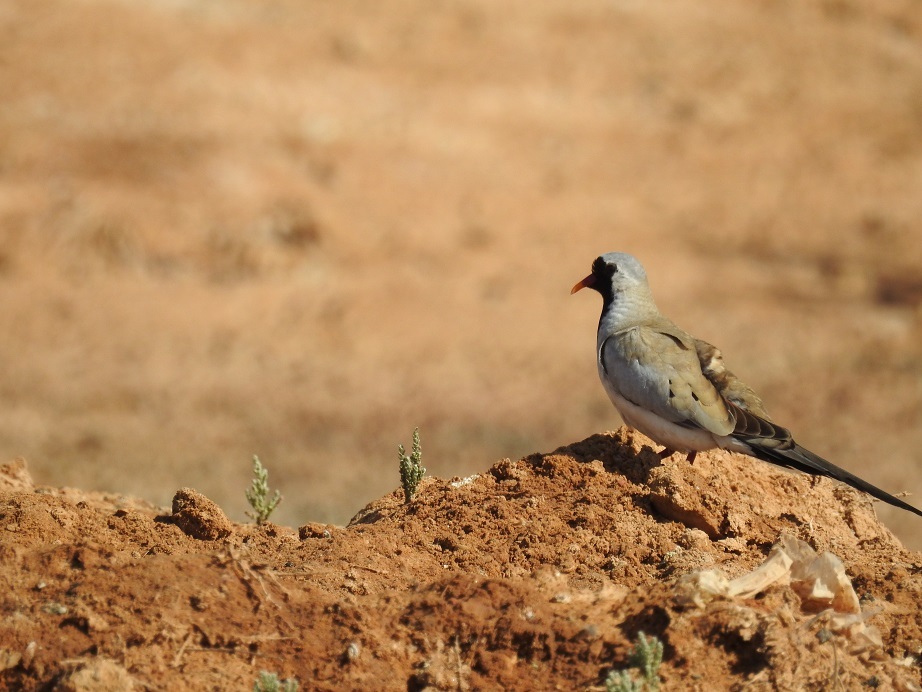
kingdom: Animalia
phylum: Chordata
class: Aves
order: Columbiformes
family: Columbidae
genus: Oena
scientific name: Oena capensis
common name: Namaqua dove
